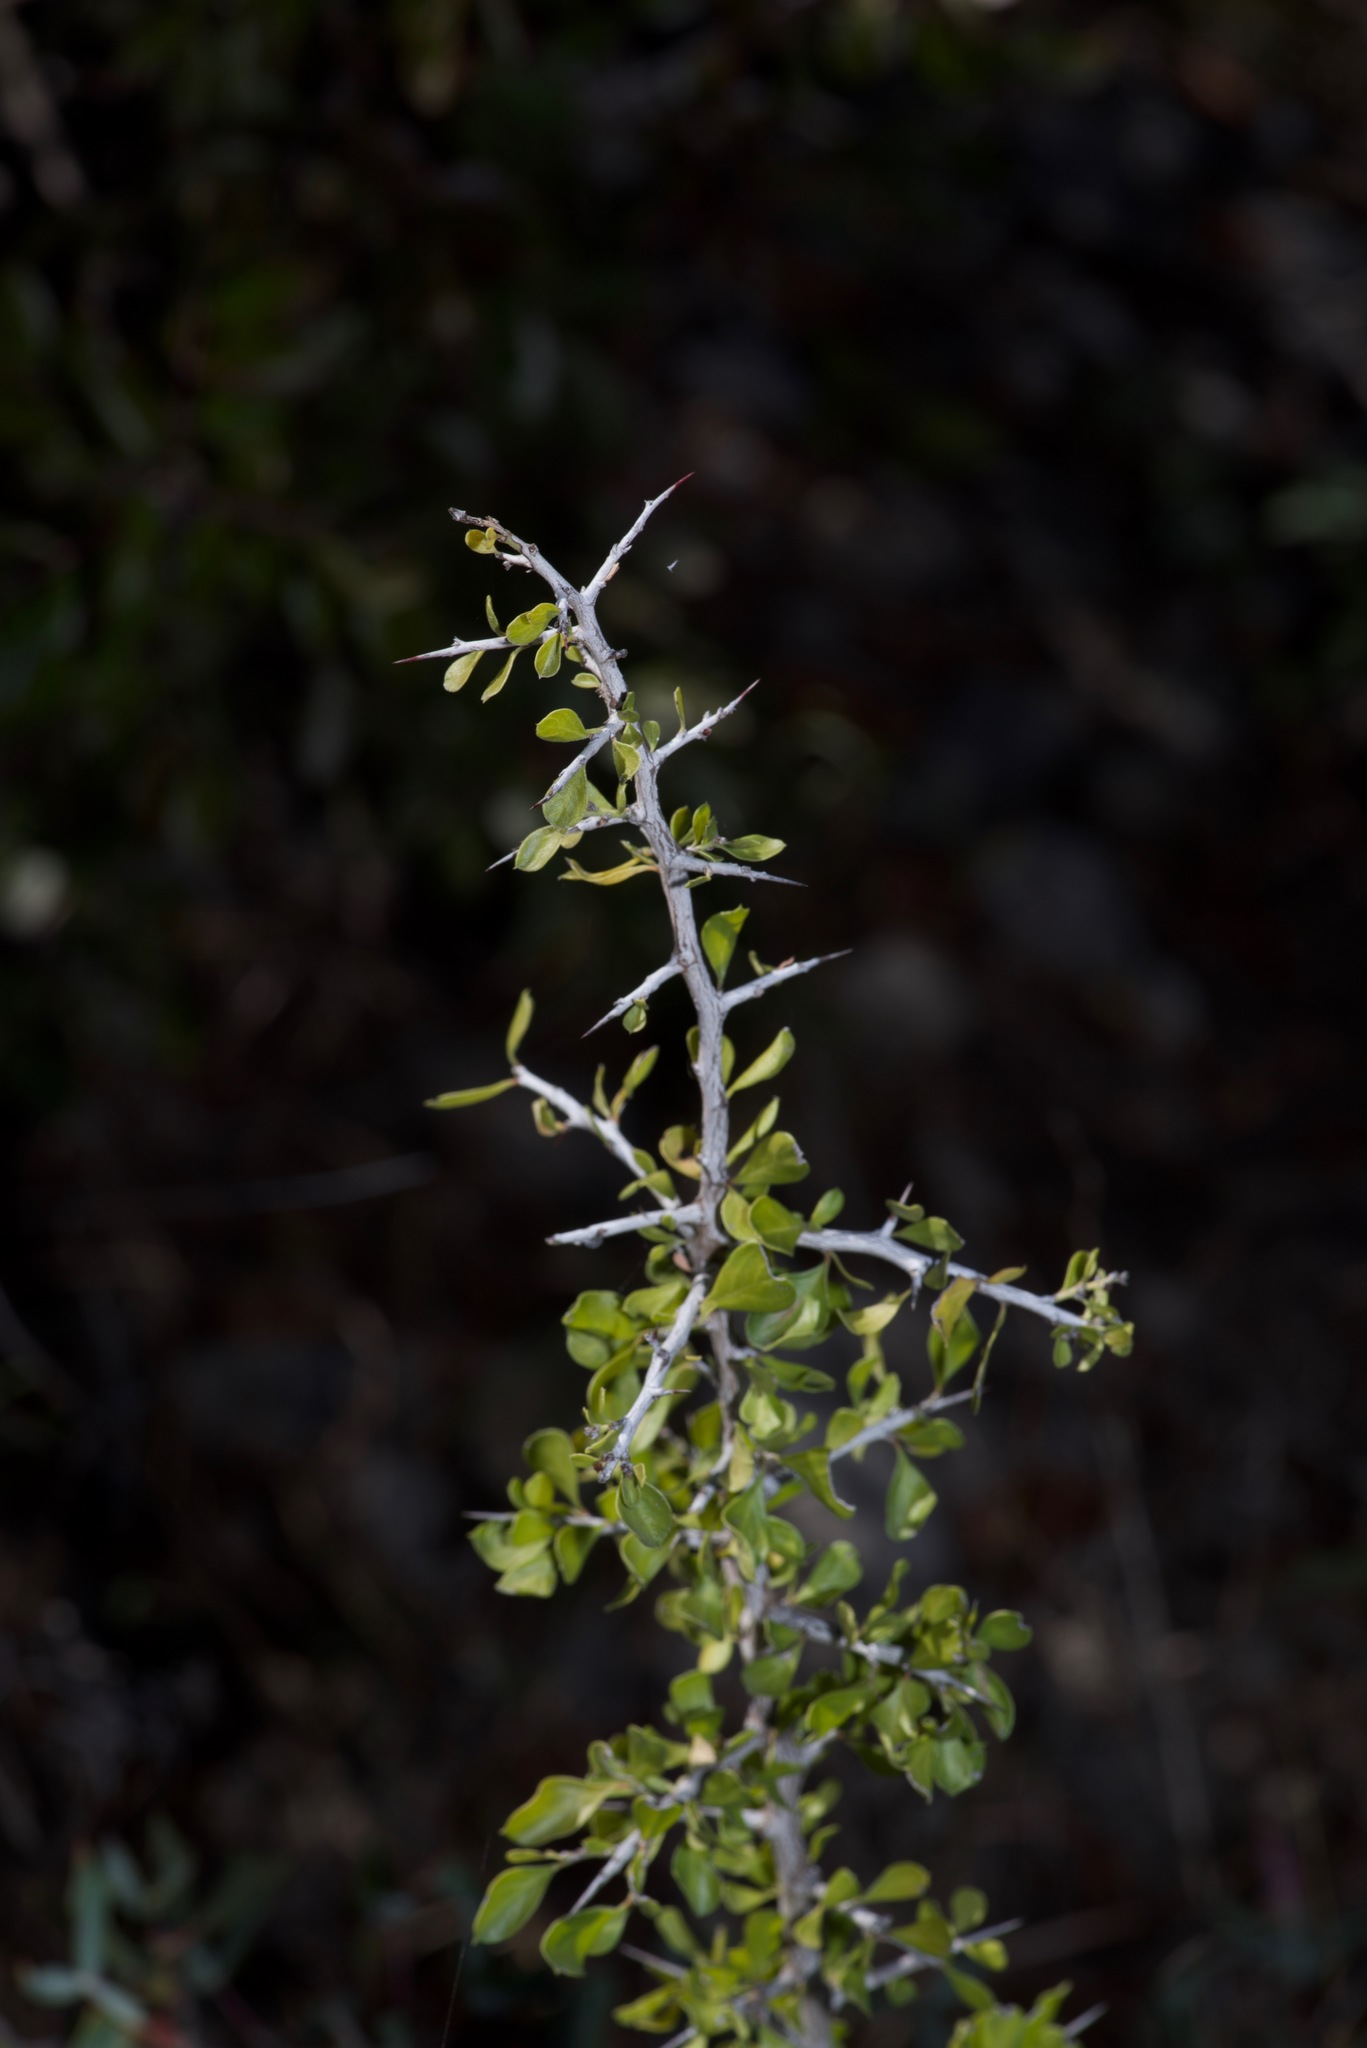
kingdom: Plantae
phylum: Tracheophyta
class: Magnoliopsida
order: Rosales
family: Rhamnaceae
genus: Condalia
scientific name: Condalia hookeri
